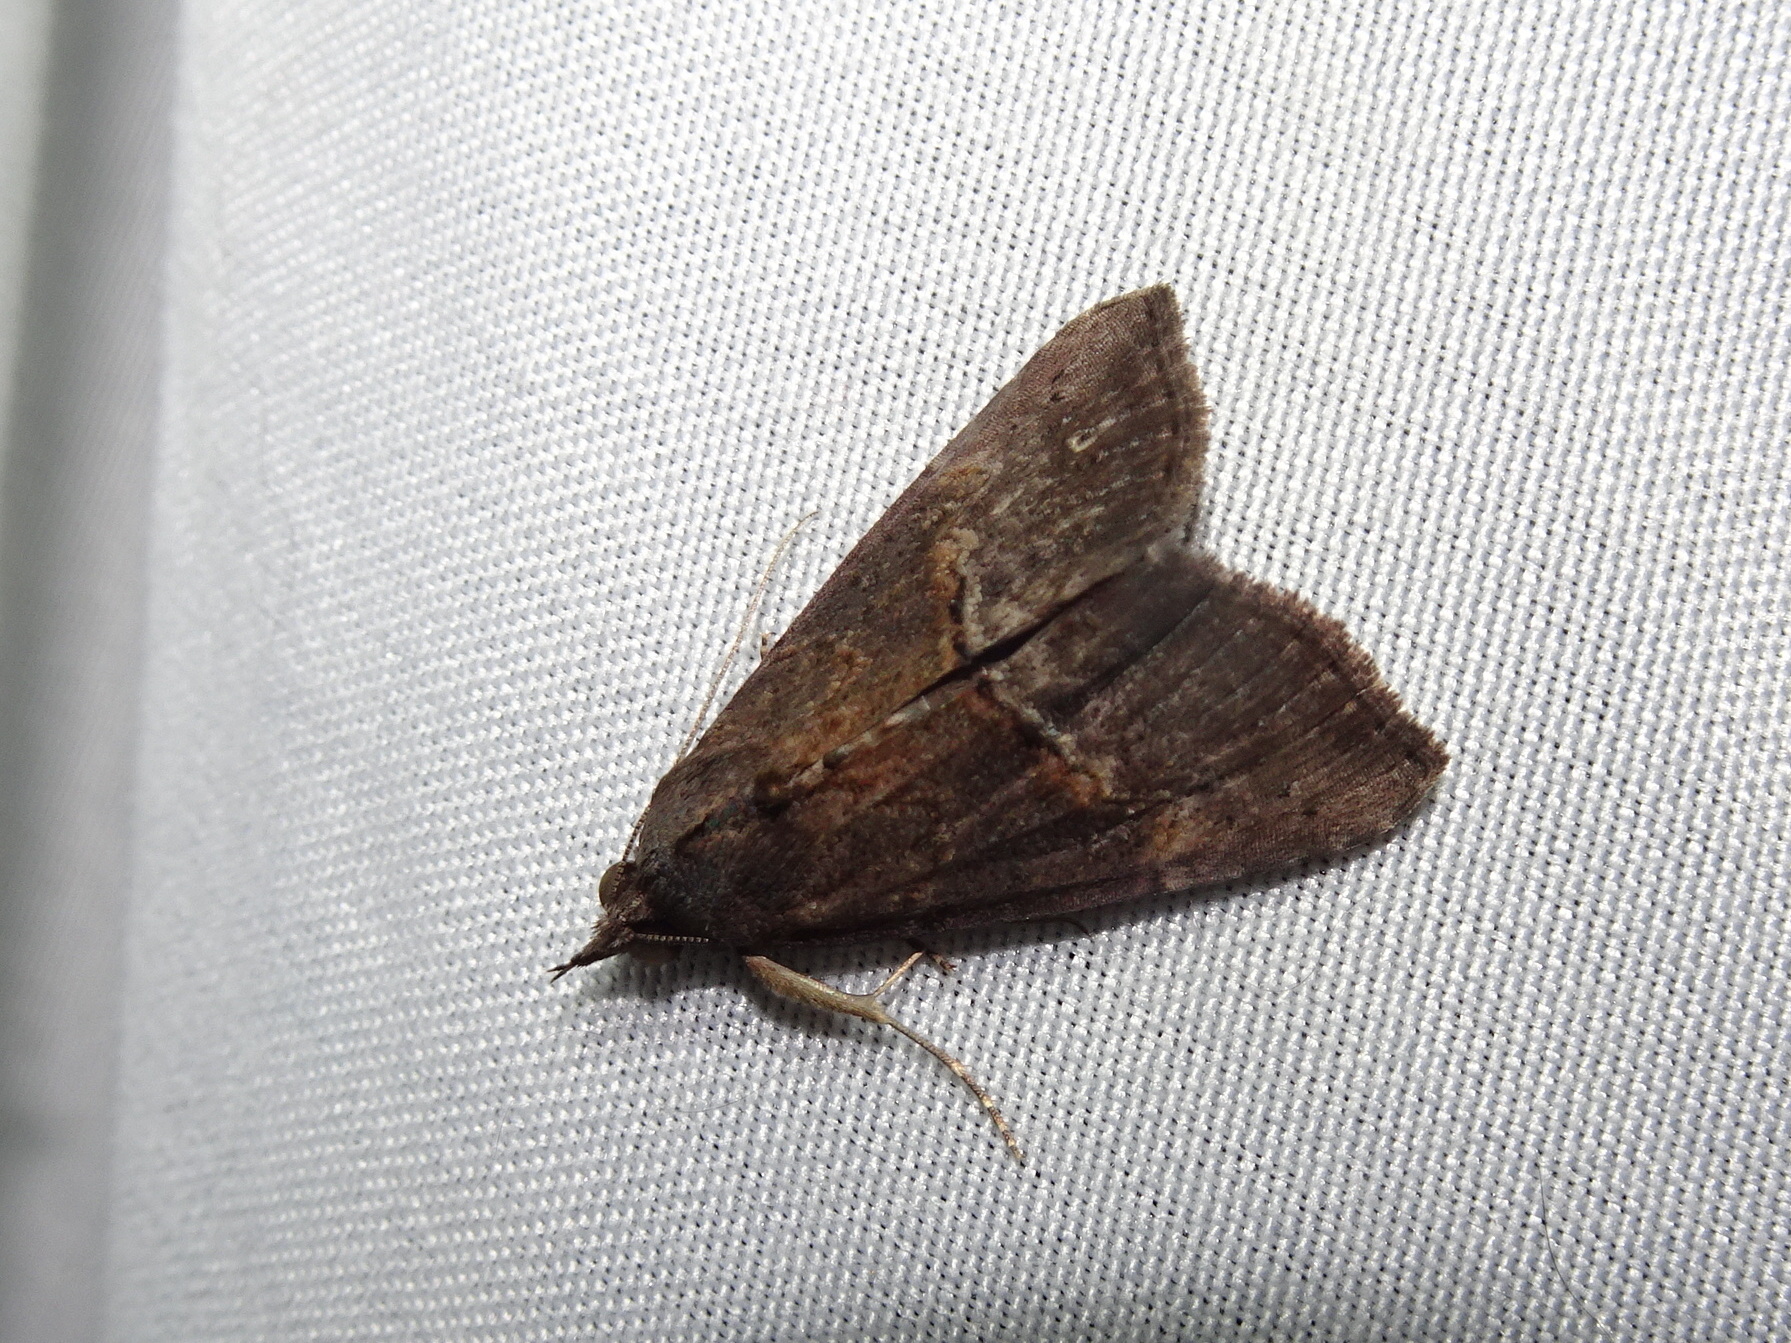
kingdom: Animalia
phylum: Arthropoda
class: Insecta
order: Lepidoptera
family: Erebidae
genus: Hypena
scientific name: Hypena scabra
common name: Green cloverworm
